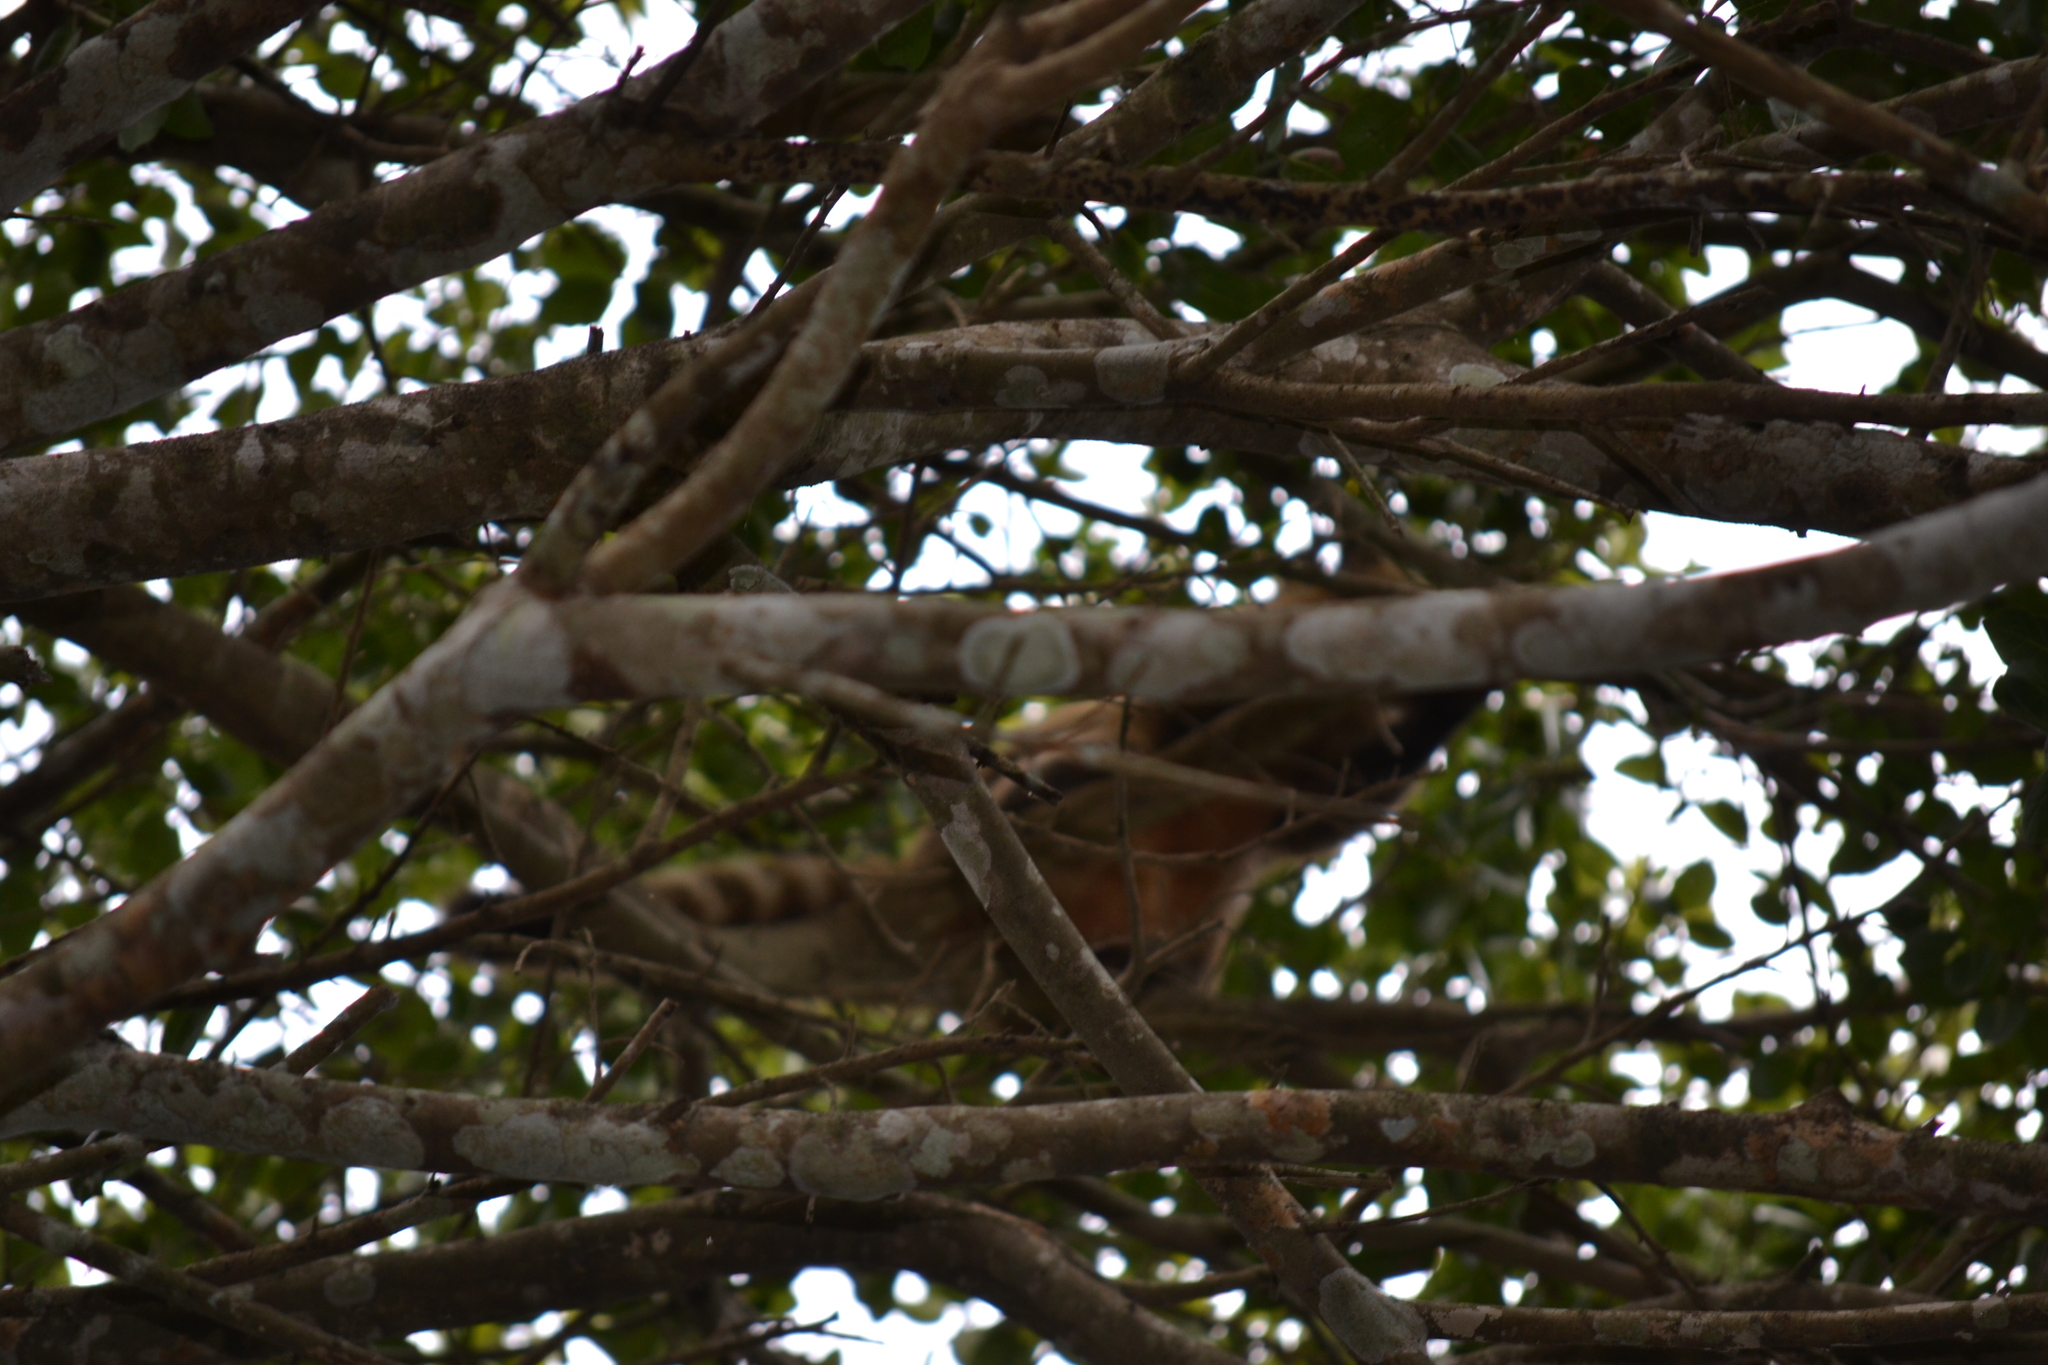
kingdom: Animalia
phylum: Chordata
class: Mammalia
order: Carnivora
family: Procyonidae
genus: Nasua
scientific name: Nasua nasua
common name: South american coati
